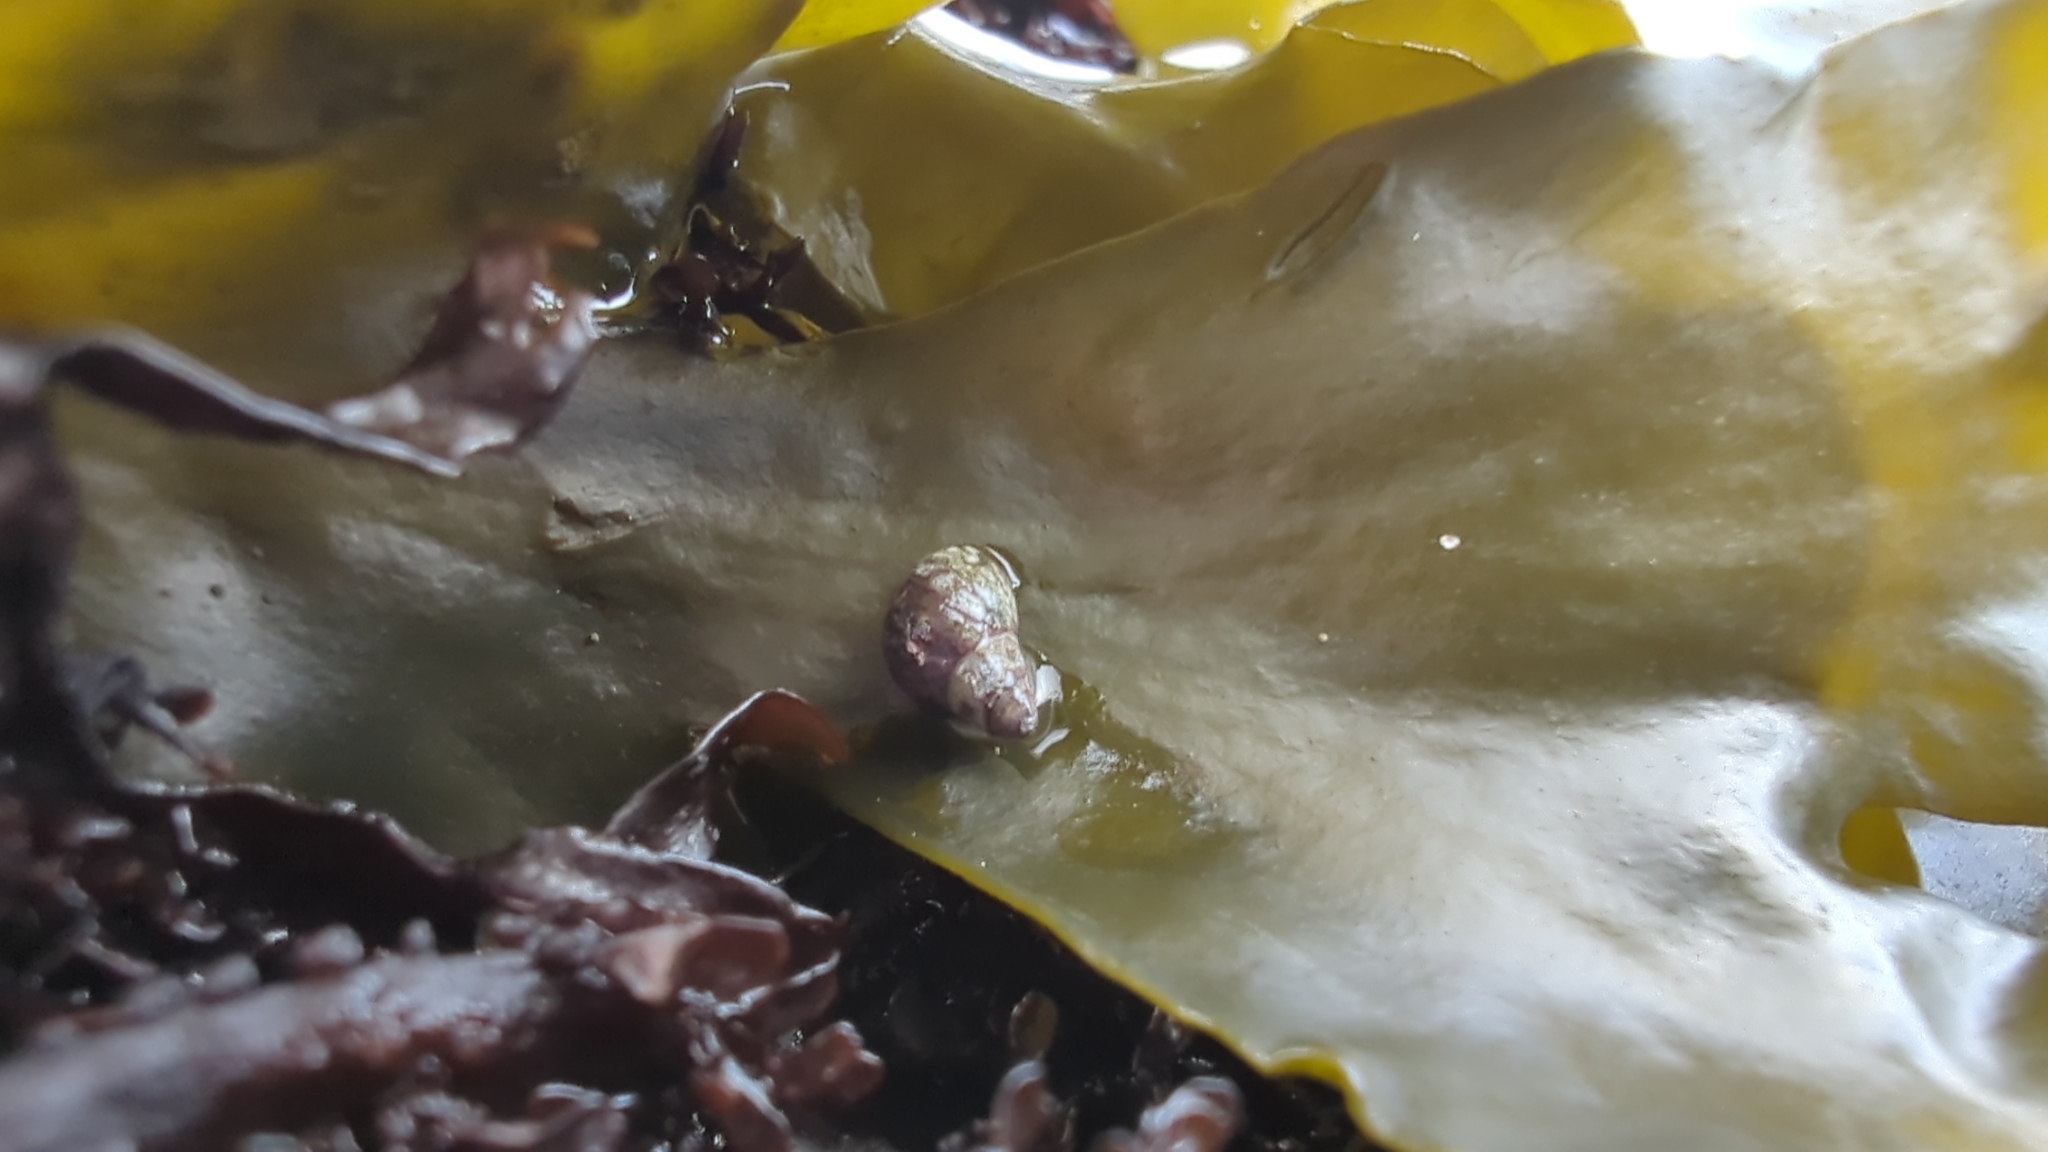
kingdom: Animalia
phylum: Mollusca
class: Gastropoda
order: Littorinimorpha
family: Littorinidae
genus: Littorina
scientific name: Littorina scutulata
